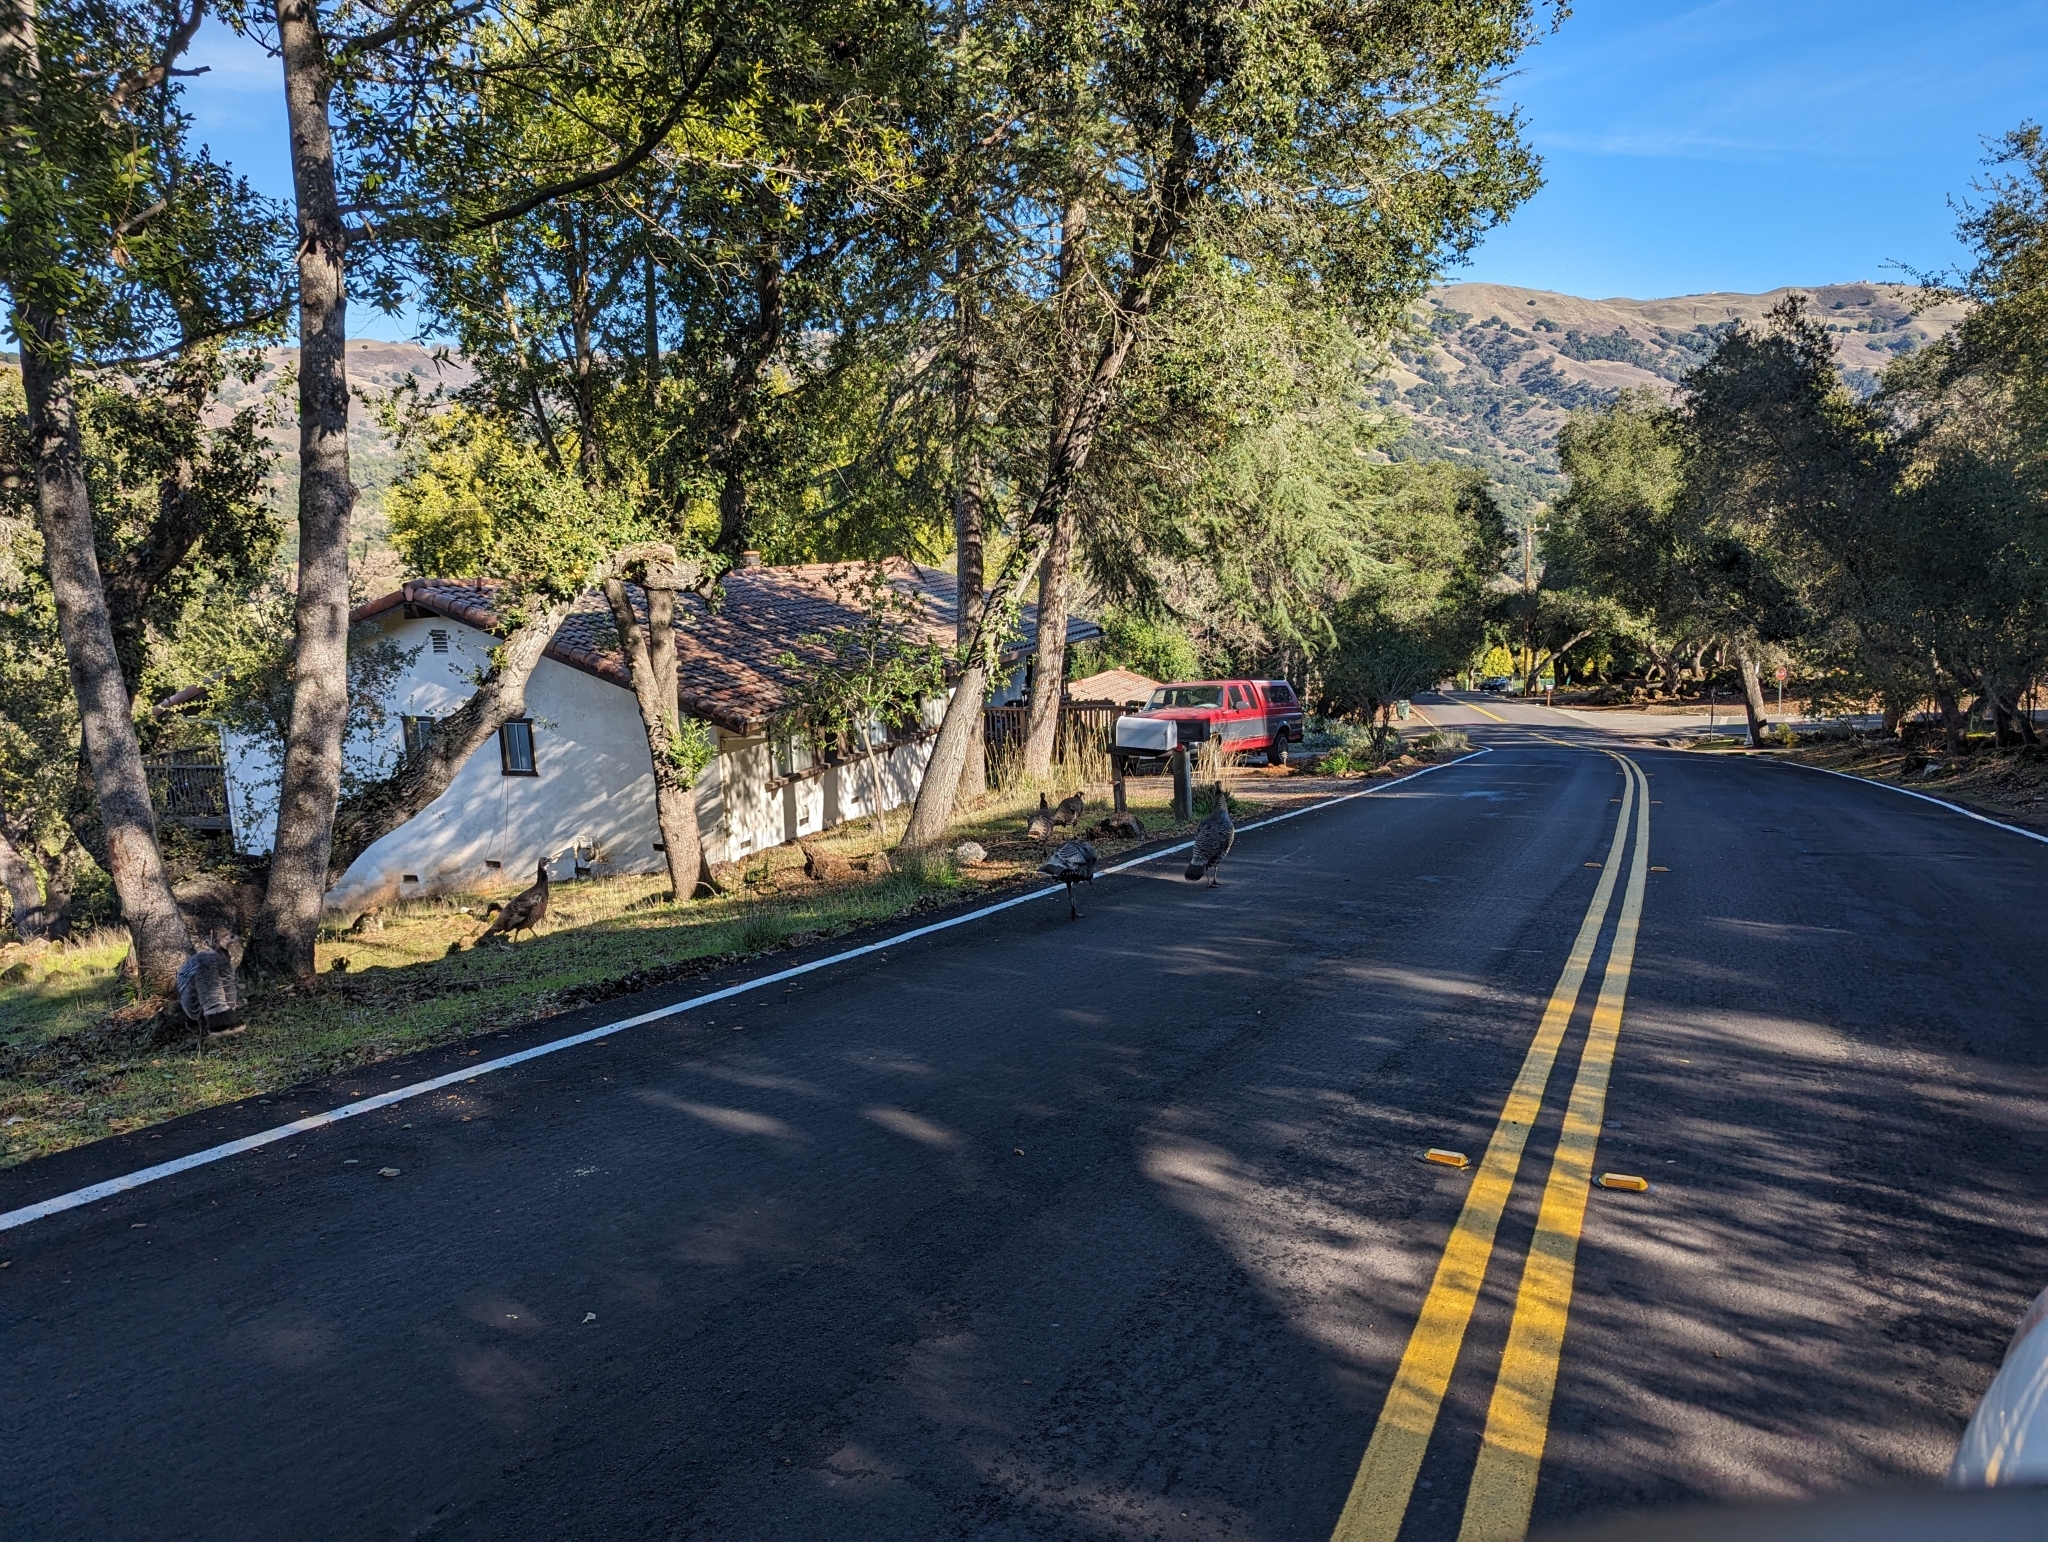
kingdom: Animalia
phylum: Chordata
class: Aves
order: Galliformes
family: Phasianidae
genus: Meleagris
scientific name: Meleagris gallopavo
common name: Wild turkey
